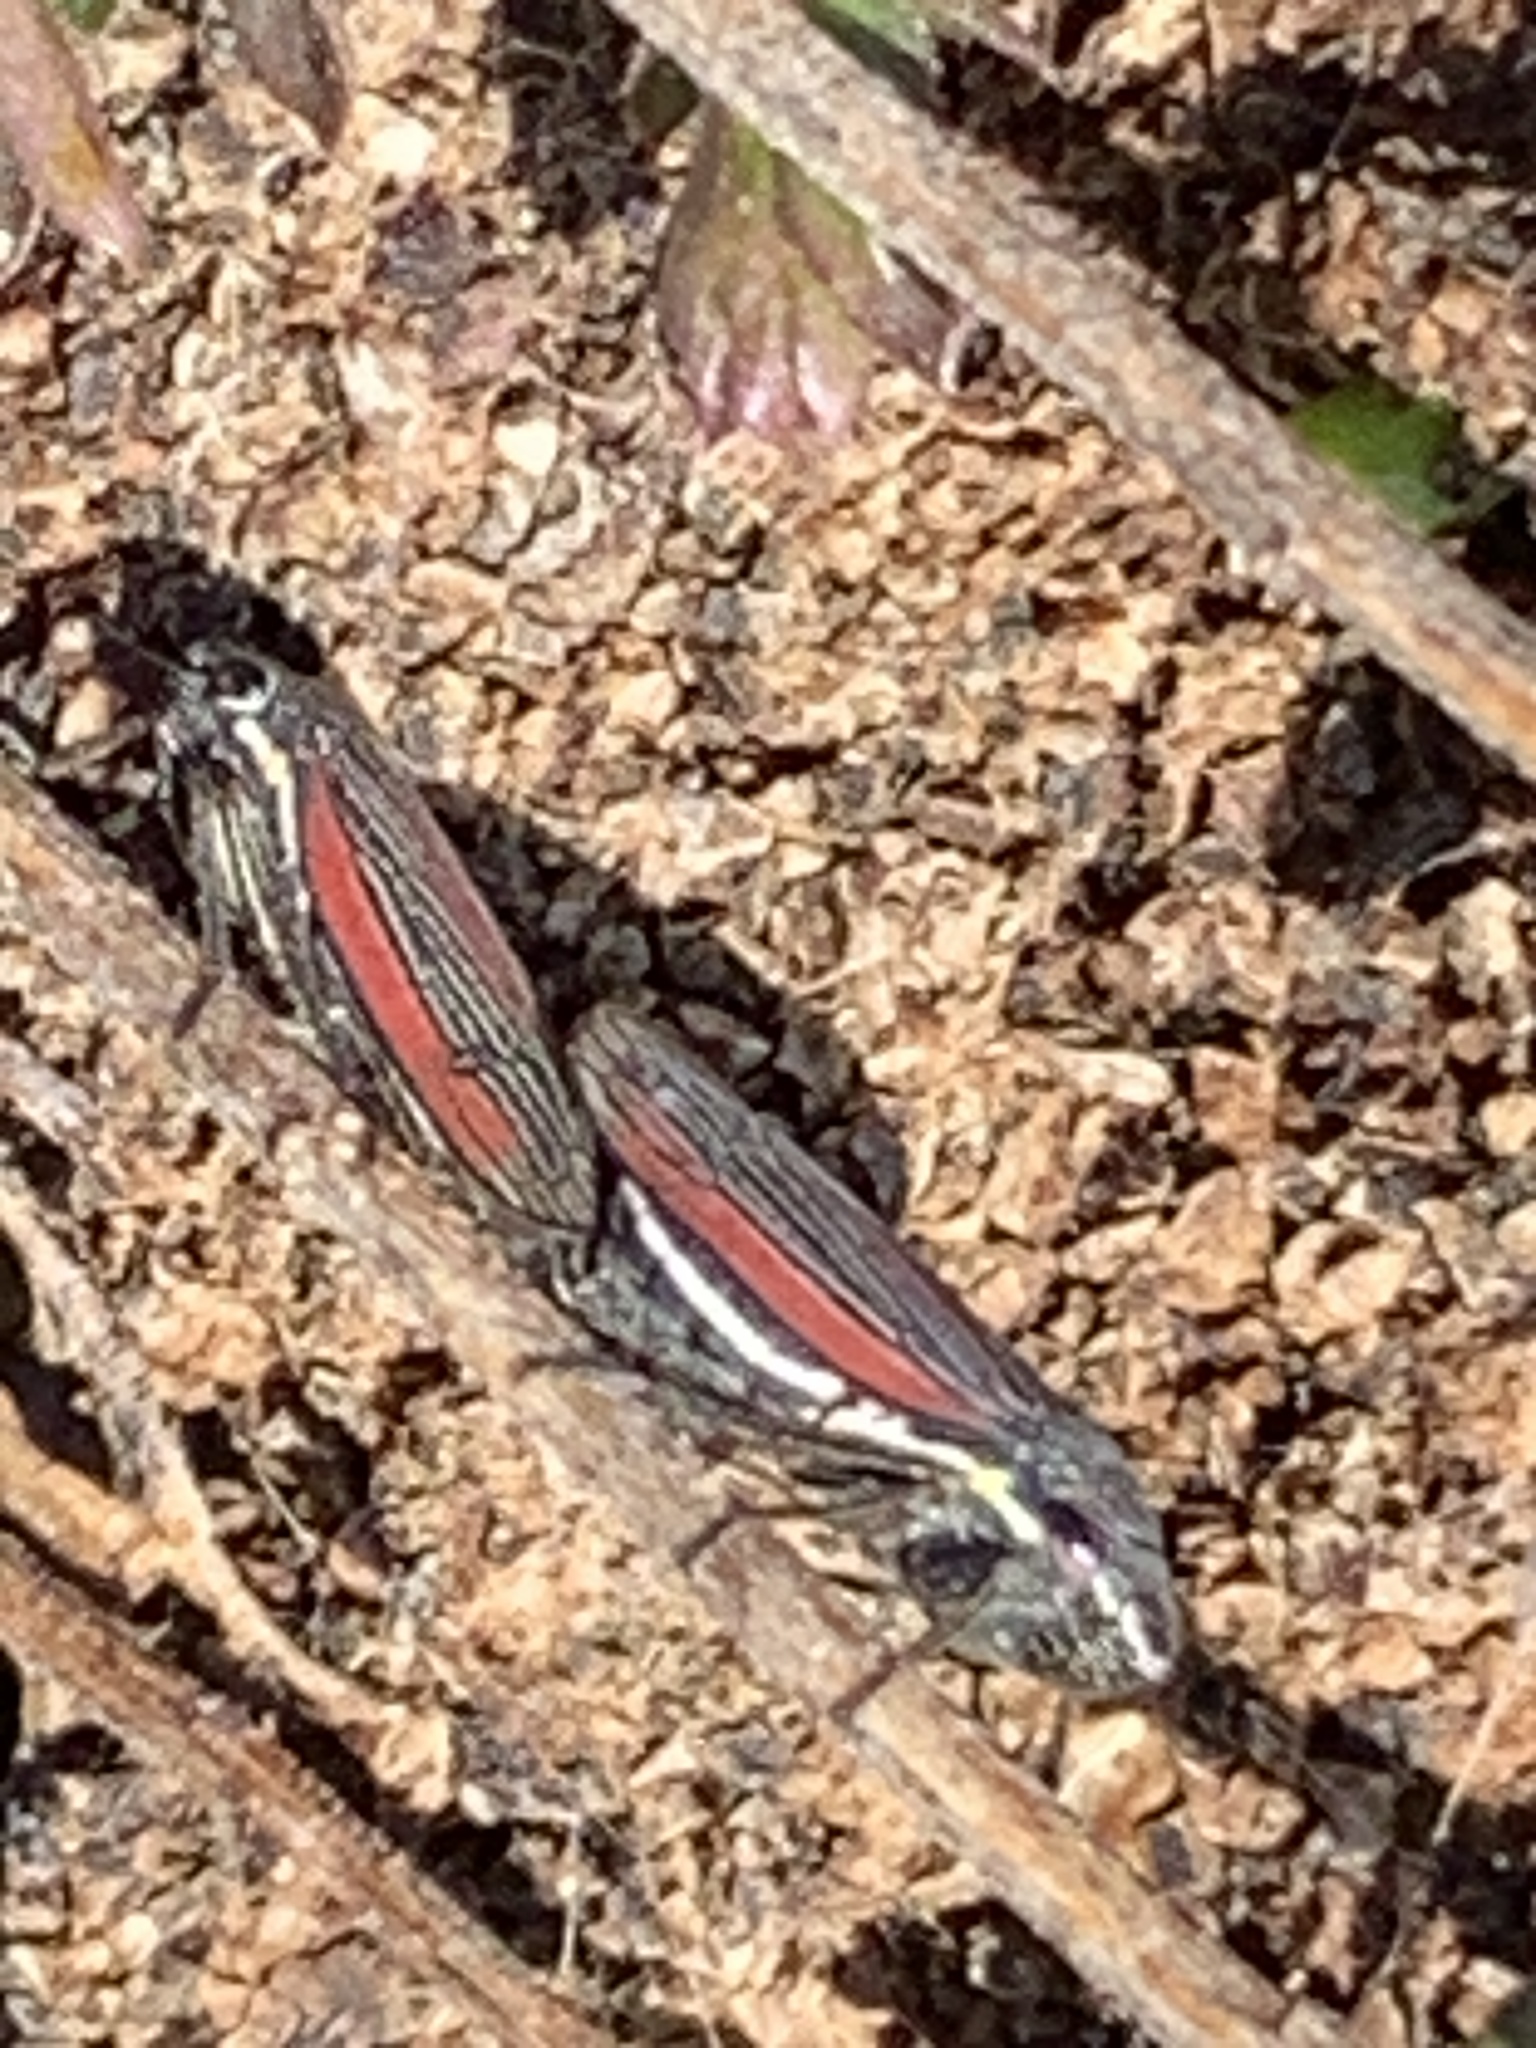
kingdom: Animalia
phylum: Arthropoda
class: Insecta
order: Hemiptera
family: Cicadellidae
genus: Cuerna
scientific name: Cuerna striata
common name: Striped leafhopper
